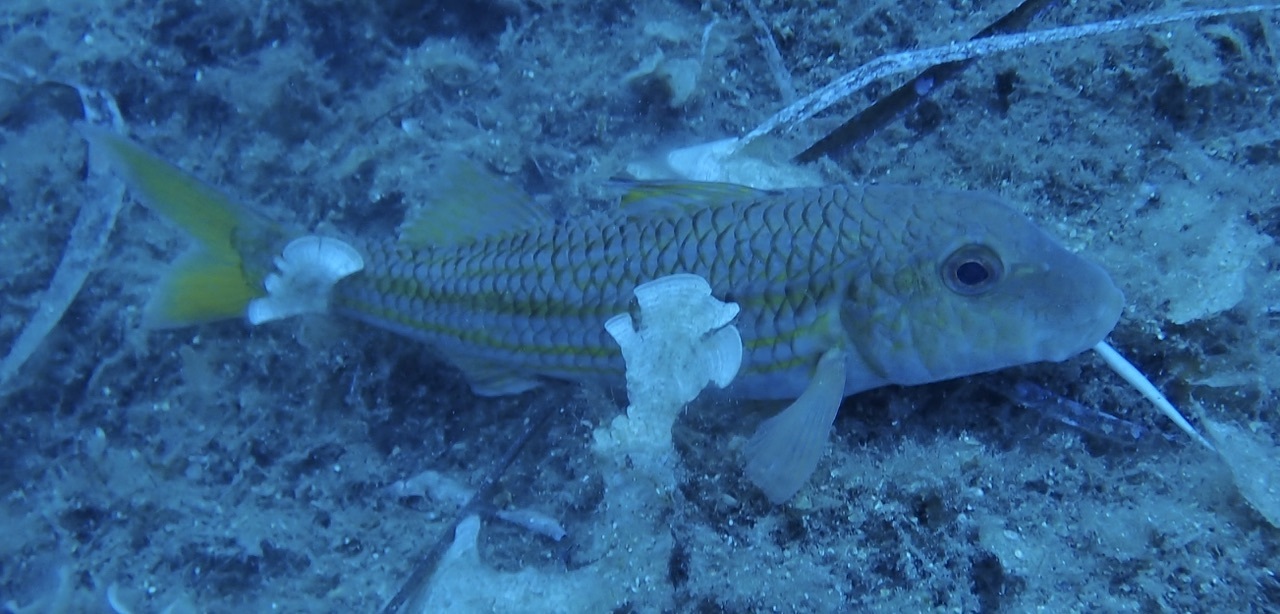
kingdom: Animalia
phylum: Chordata
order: Perciformes
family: Mullidae
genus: Mullus
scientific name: Mullus surmuletus
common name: Red mullet
